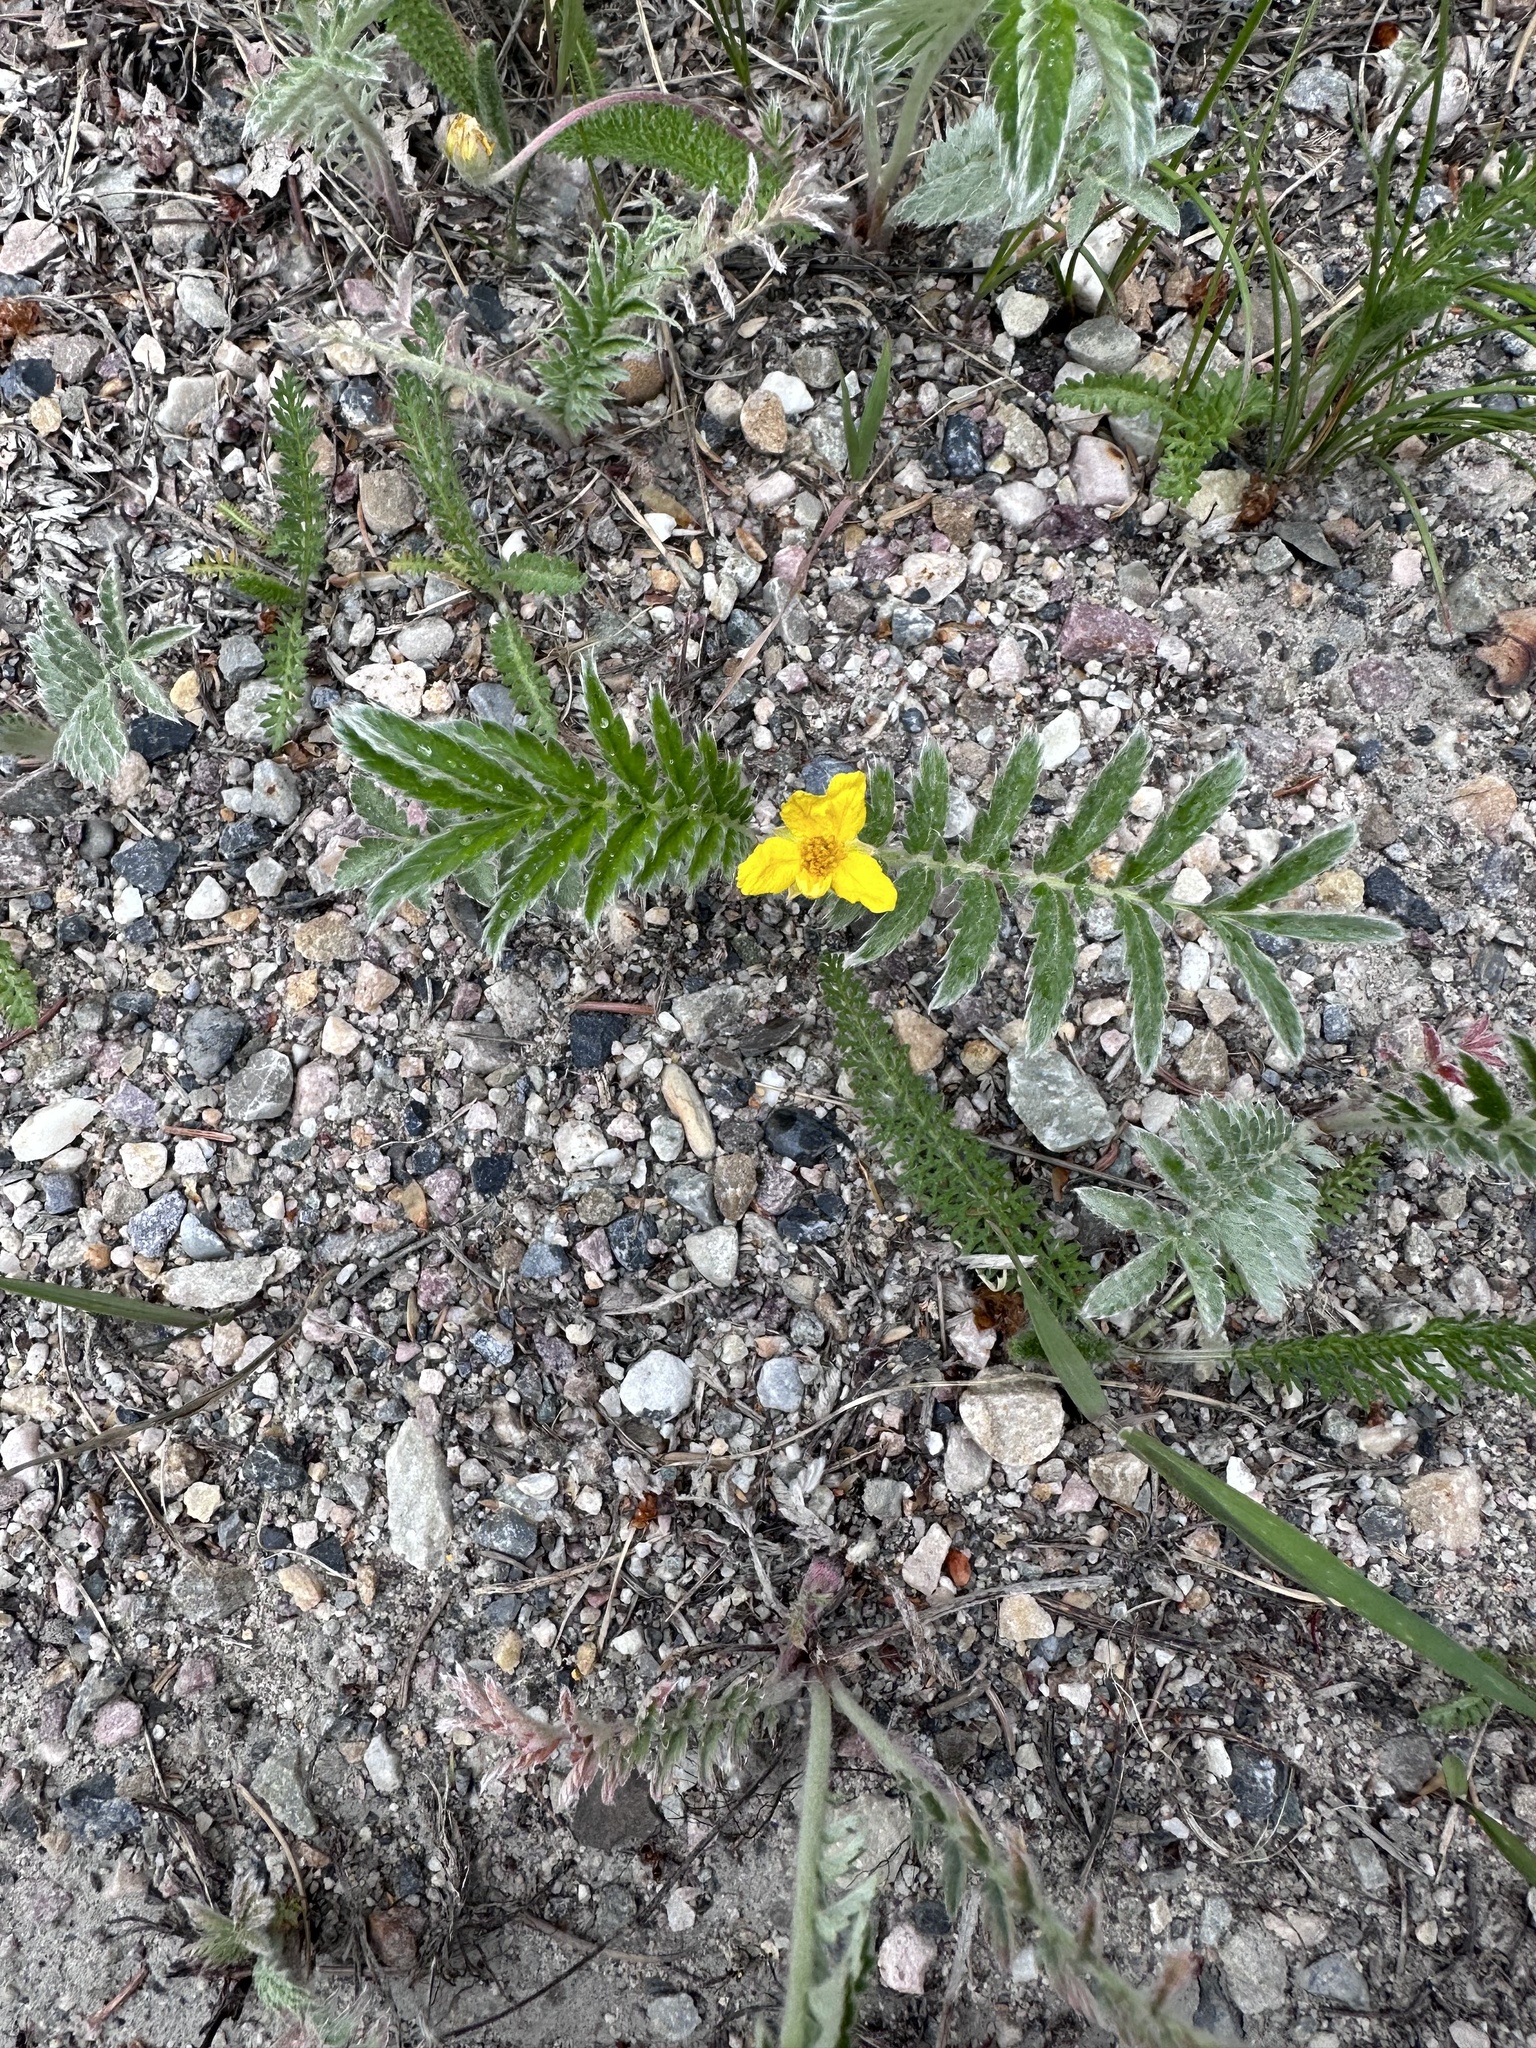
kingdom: Plantae
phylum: Tracheophyta
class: Magnoliopsida
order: Rosales
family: Rosaceae
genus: Argentina
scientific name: Argentina anserina
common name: Common silverweed
